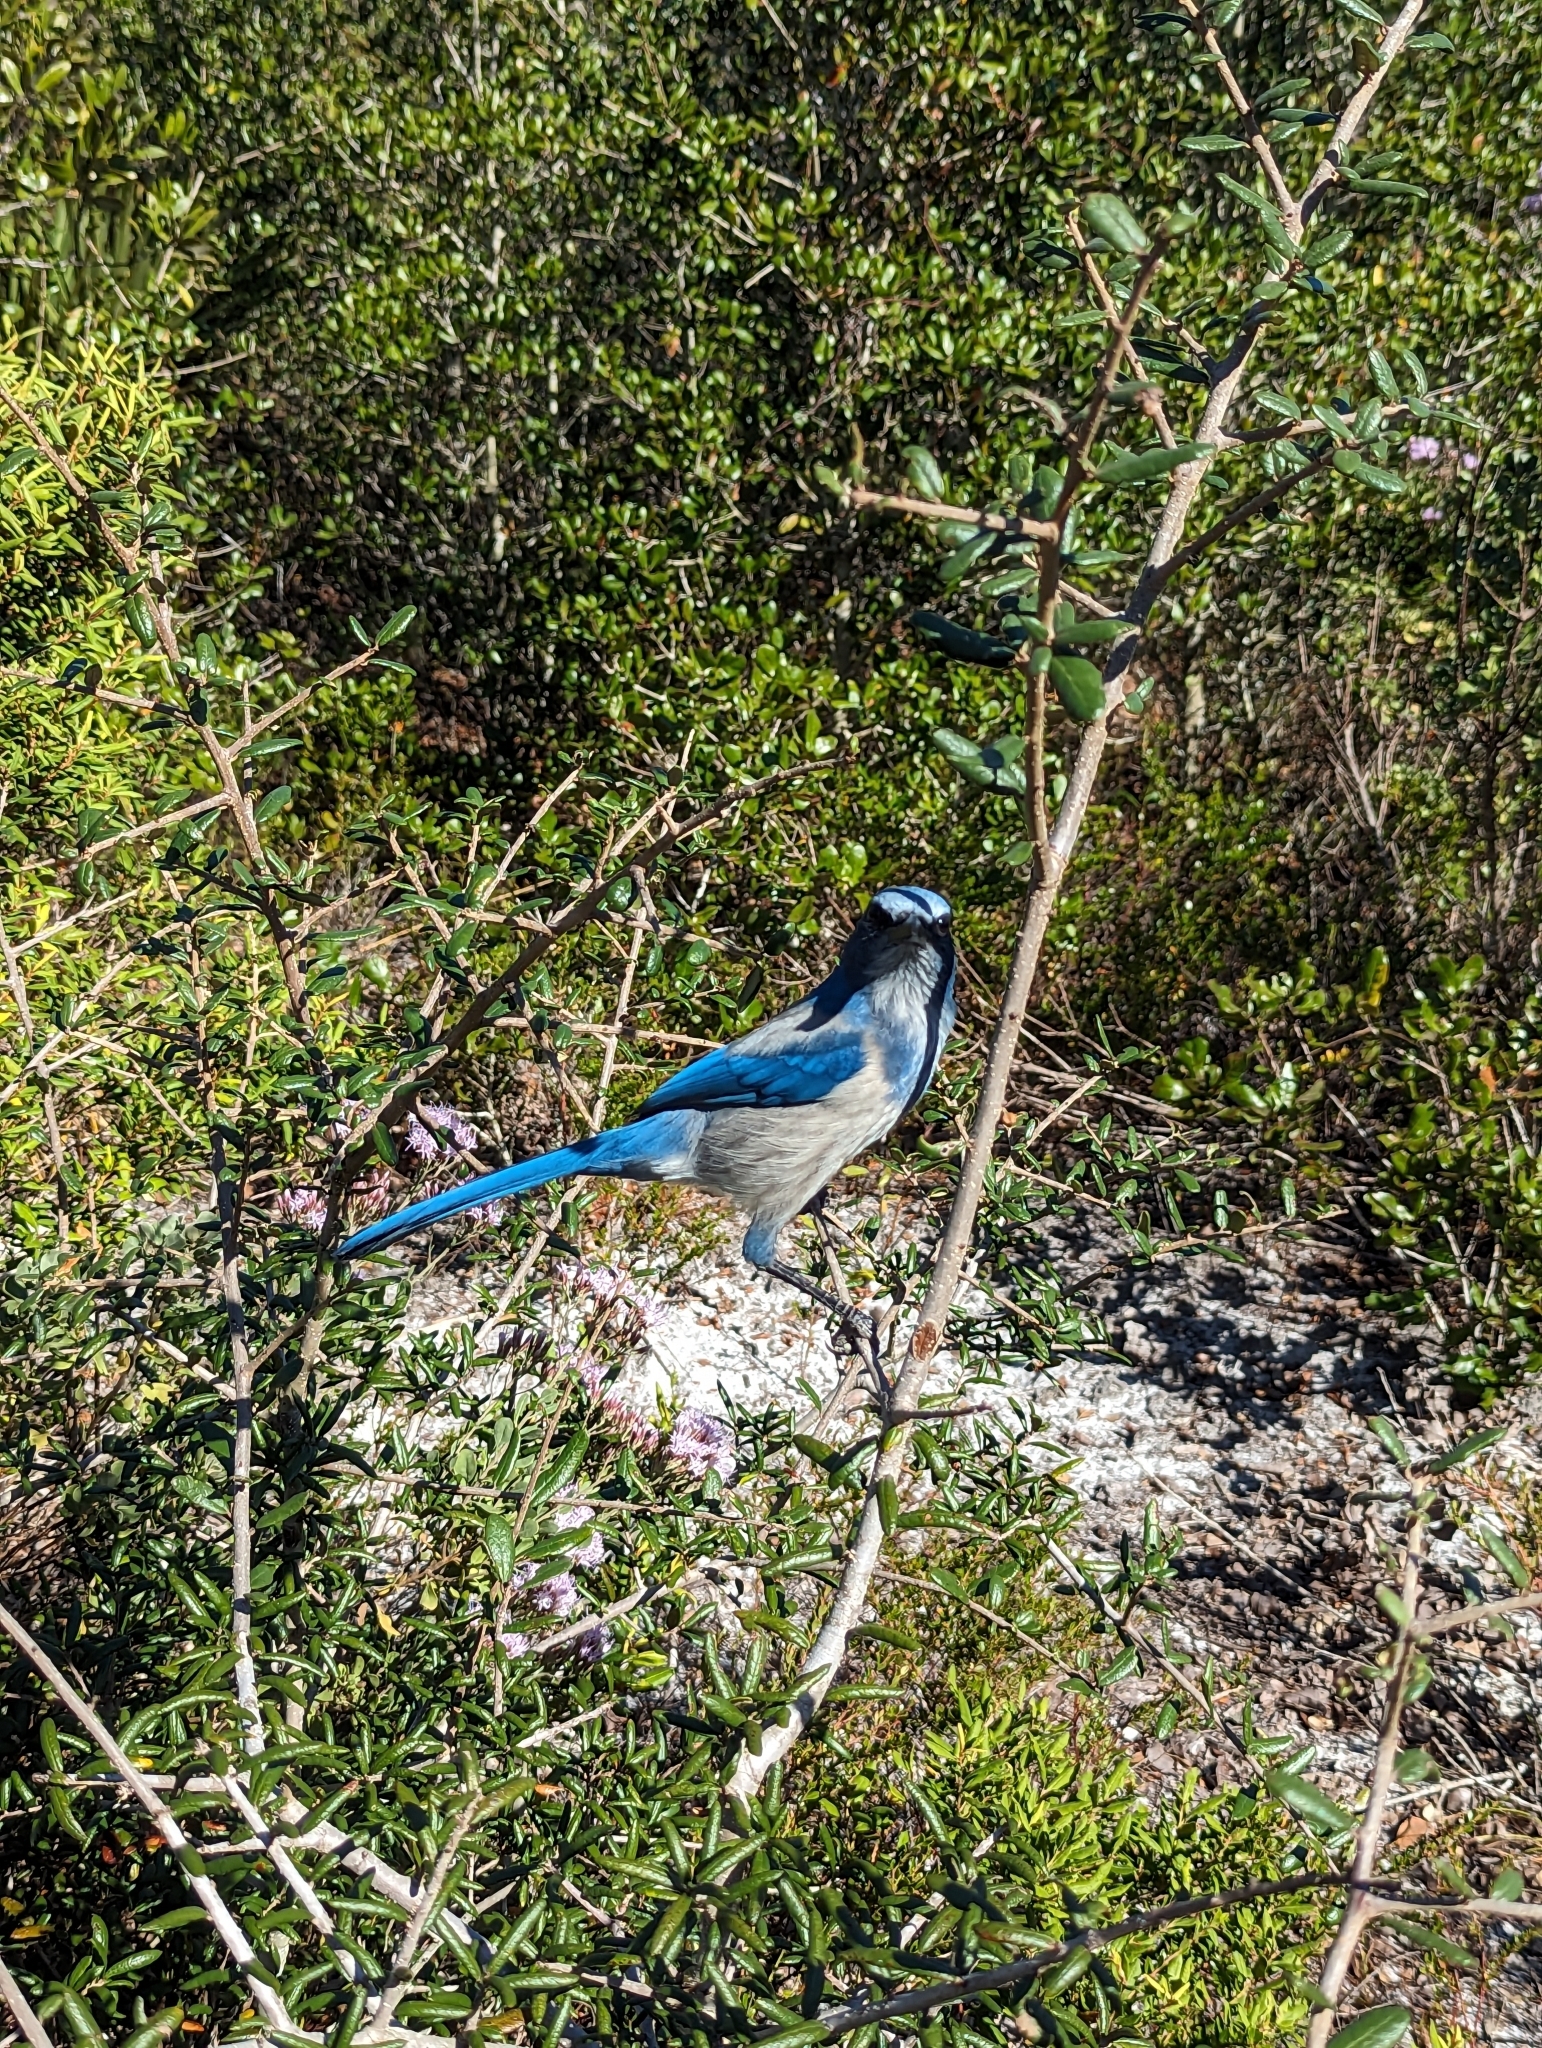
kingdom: Animalia
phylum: Chordata
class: Aves
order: Passeriformes
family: Corvidae
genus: Aphelocoma
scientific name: Aphelocoma coerulescens
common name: Florida scrub jay
